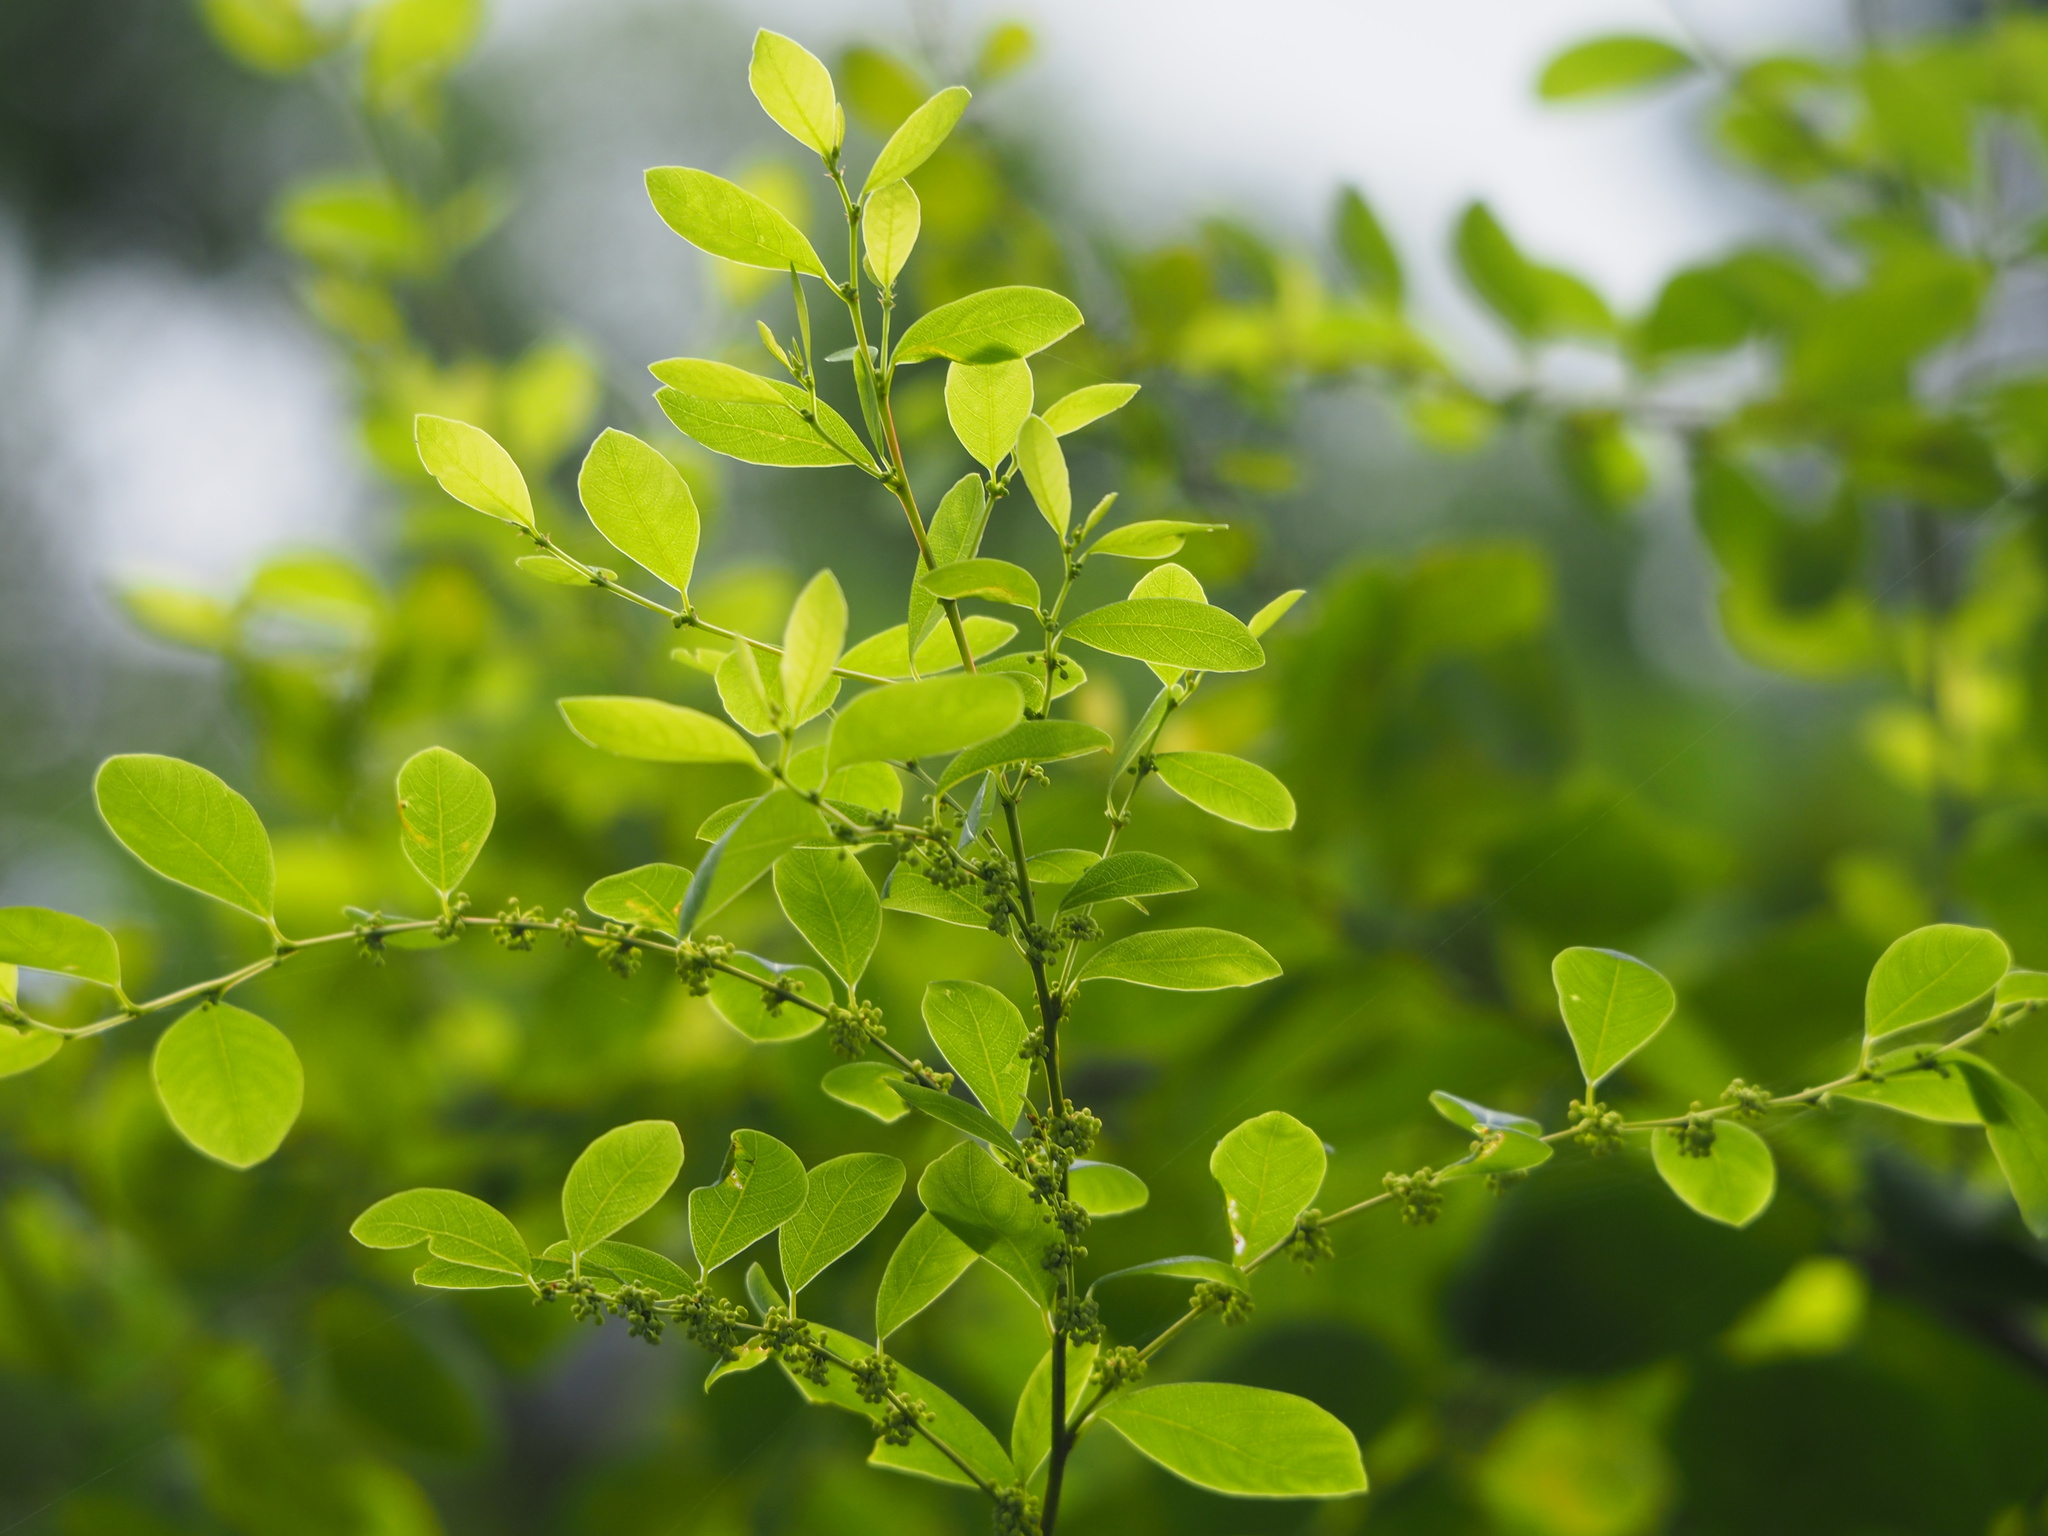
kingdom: Plantae
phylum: Tracheophyta
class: Magnoliopsida
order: Malpighiales
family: Phyllanthaceae
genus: Flueggea
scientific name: Flueggea virosa
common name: Common bushweed
